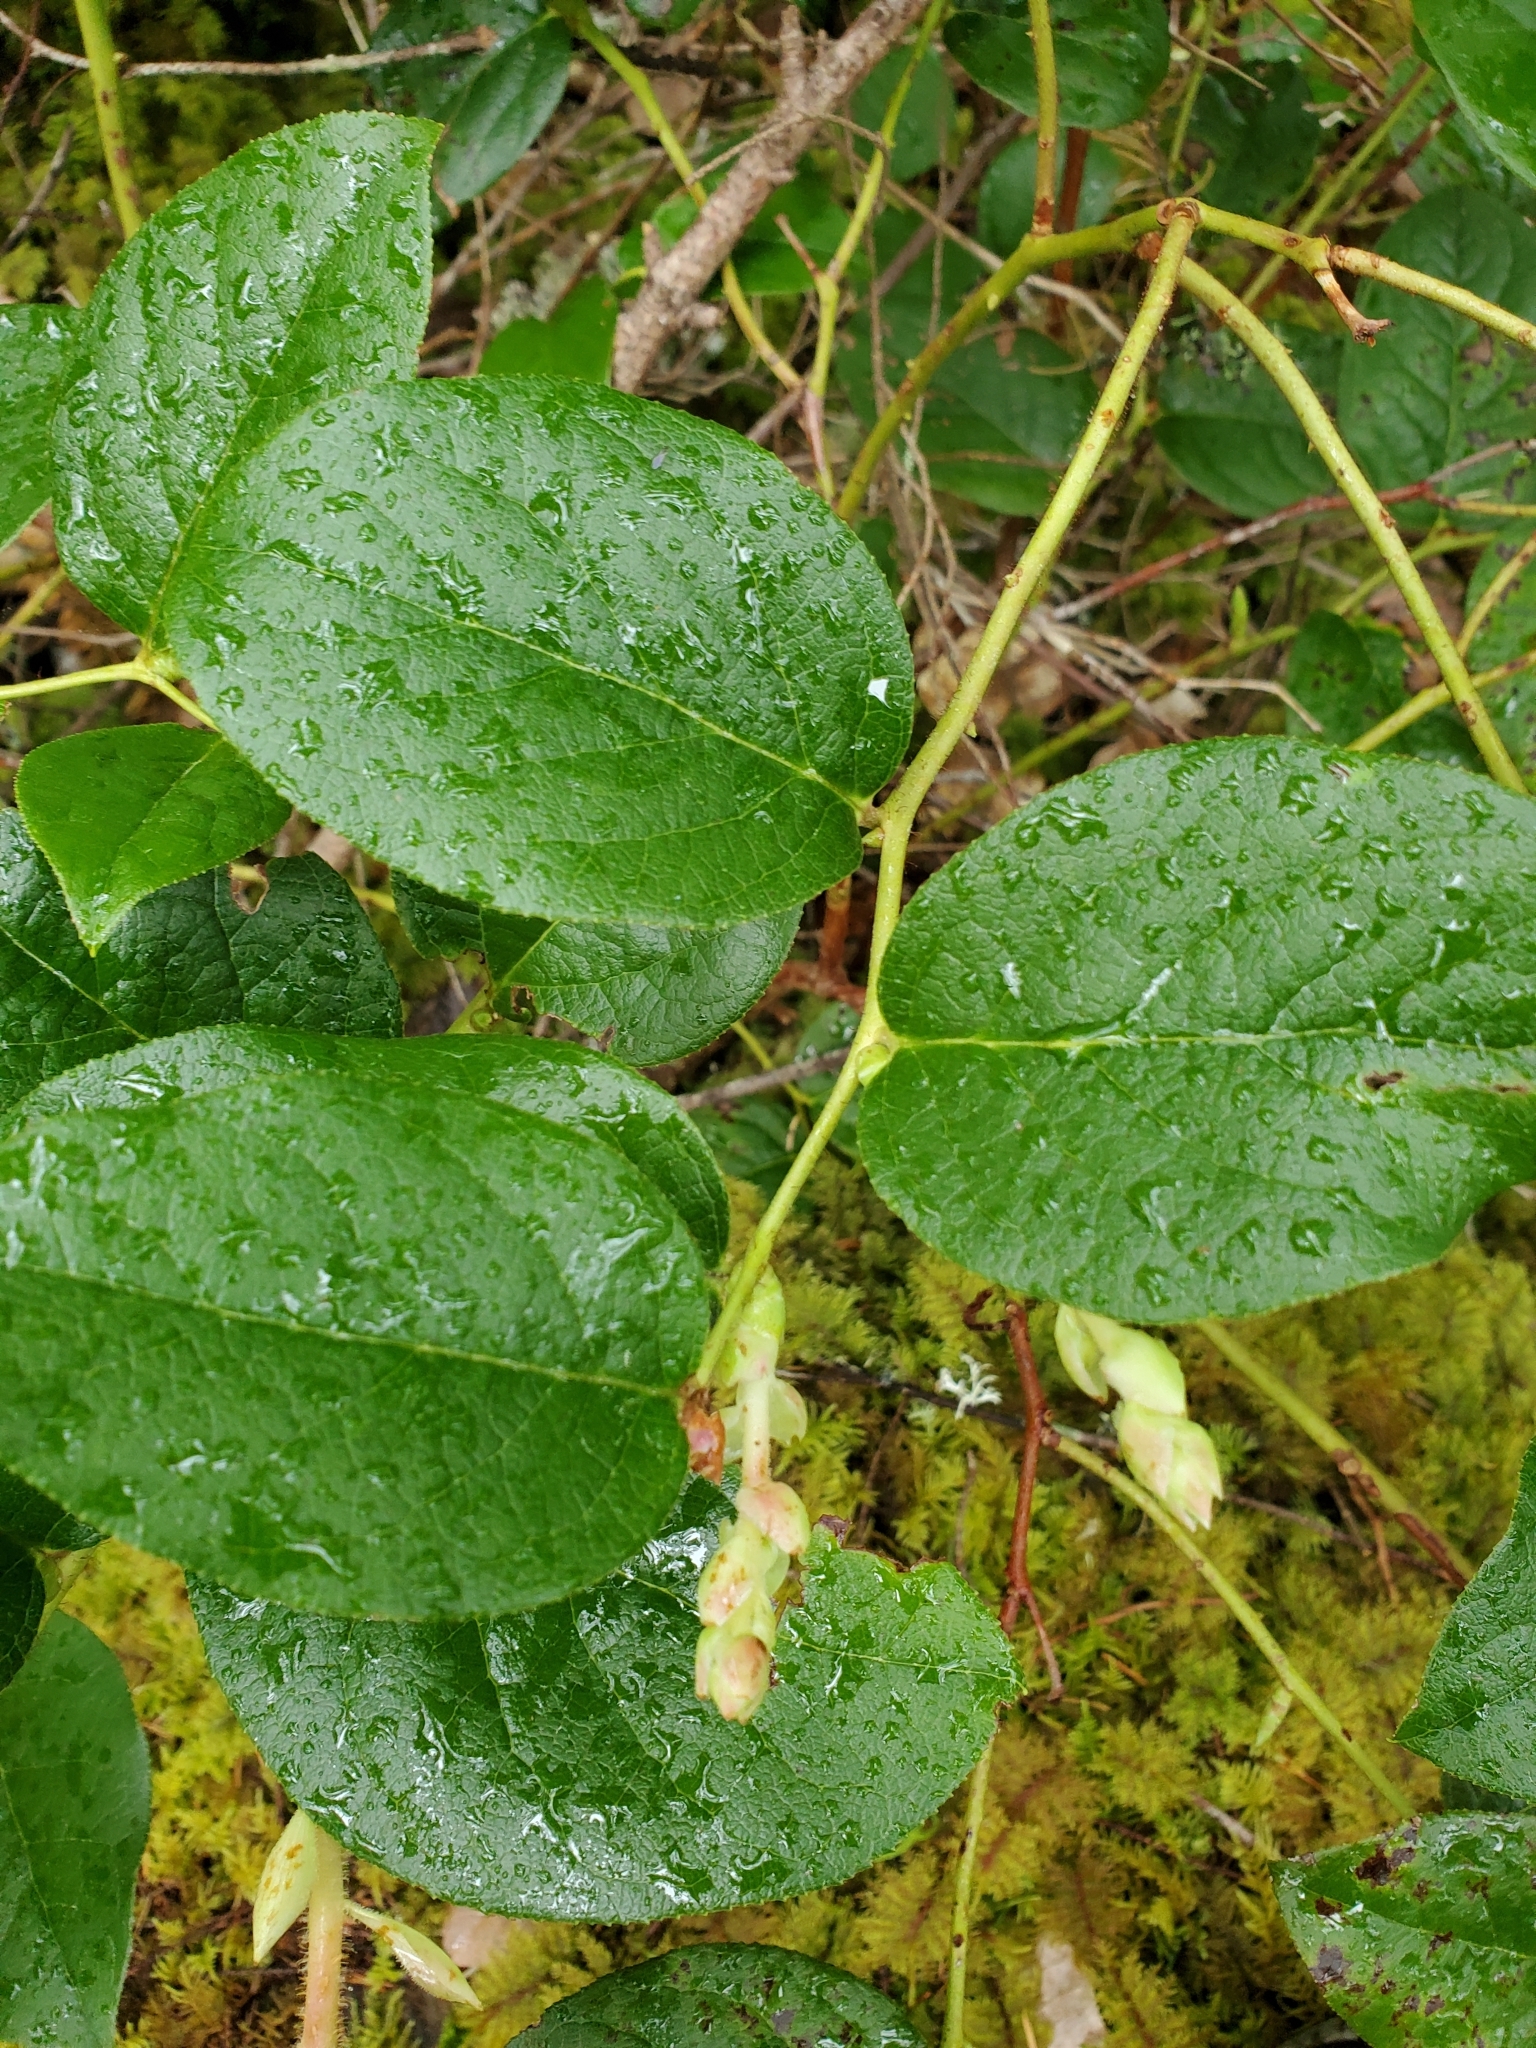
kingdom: Plantae
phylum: Tracheophyta
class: Magnoliopsida
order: Ericales
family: Ericaceae
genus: Gaultheria
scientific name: Gaultheria shallon
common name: Shallon
